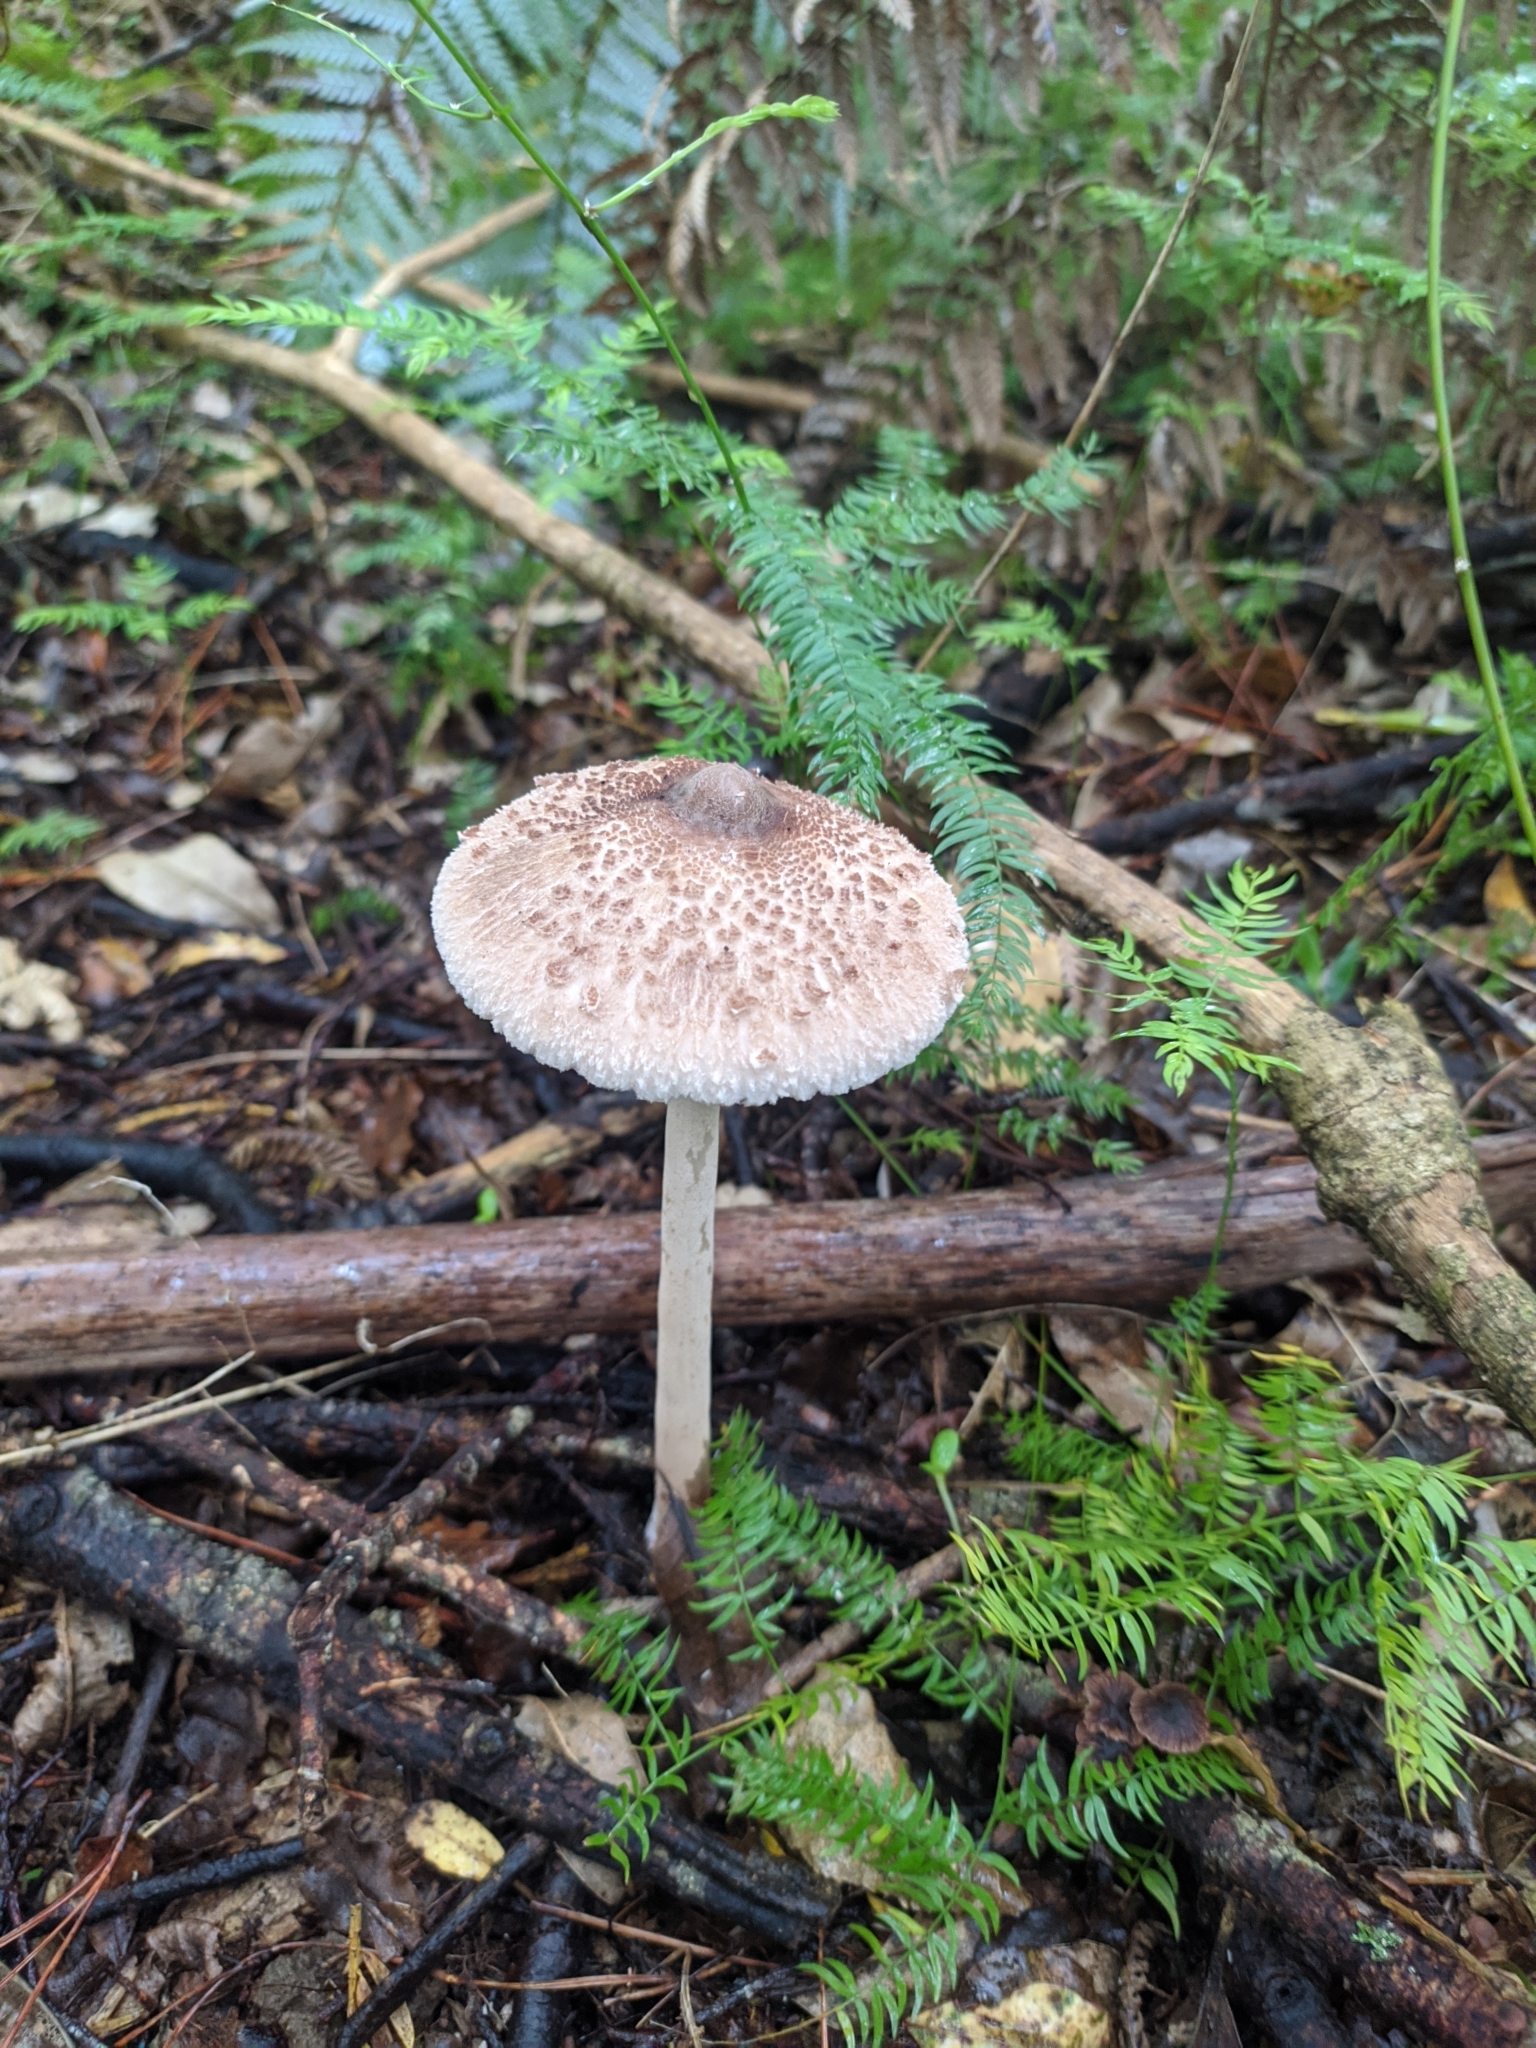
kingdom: Fungi
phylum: Basidiomycota
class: Agaricomycetes
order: Agaricales
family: Agaricaceae
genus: Macrolepiota
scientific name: Macrolepiota clelandii
